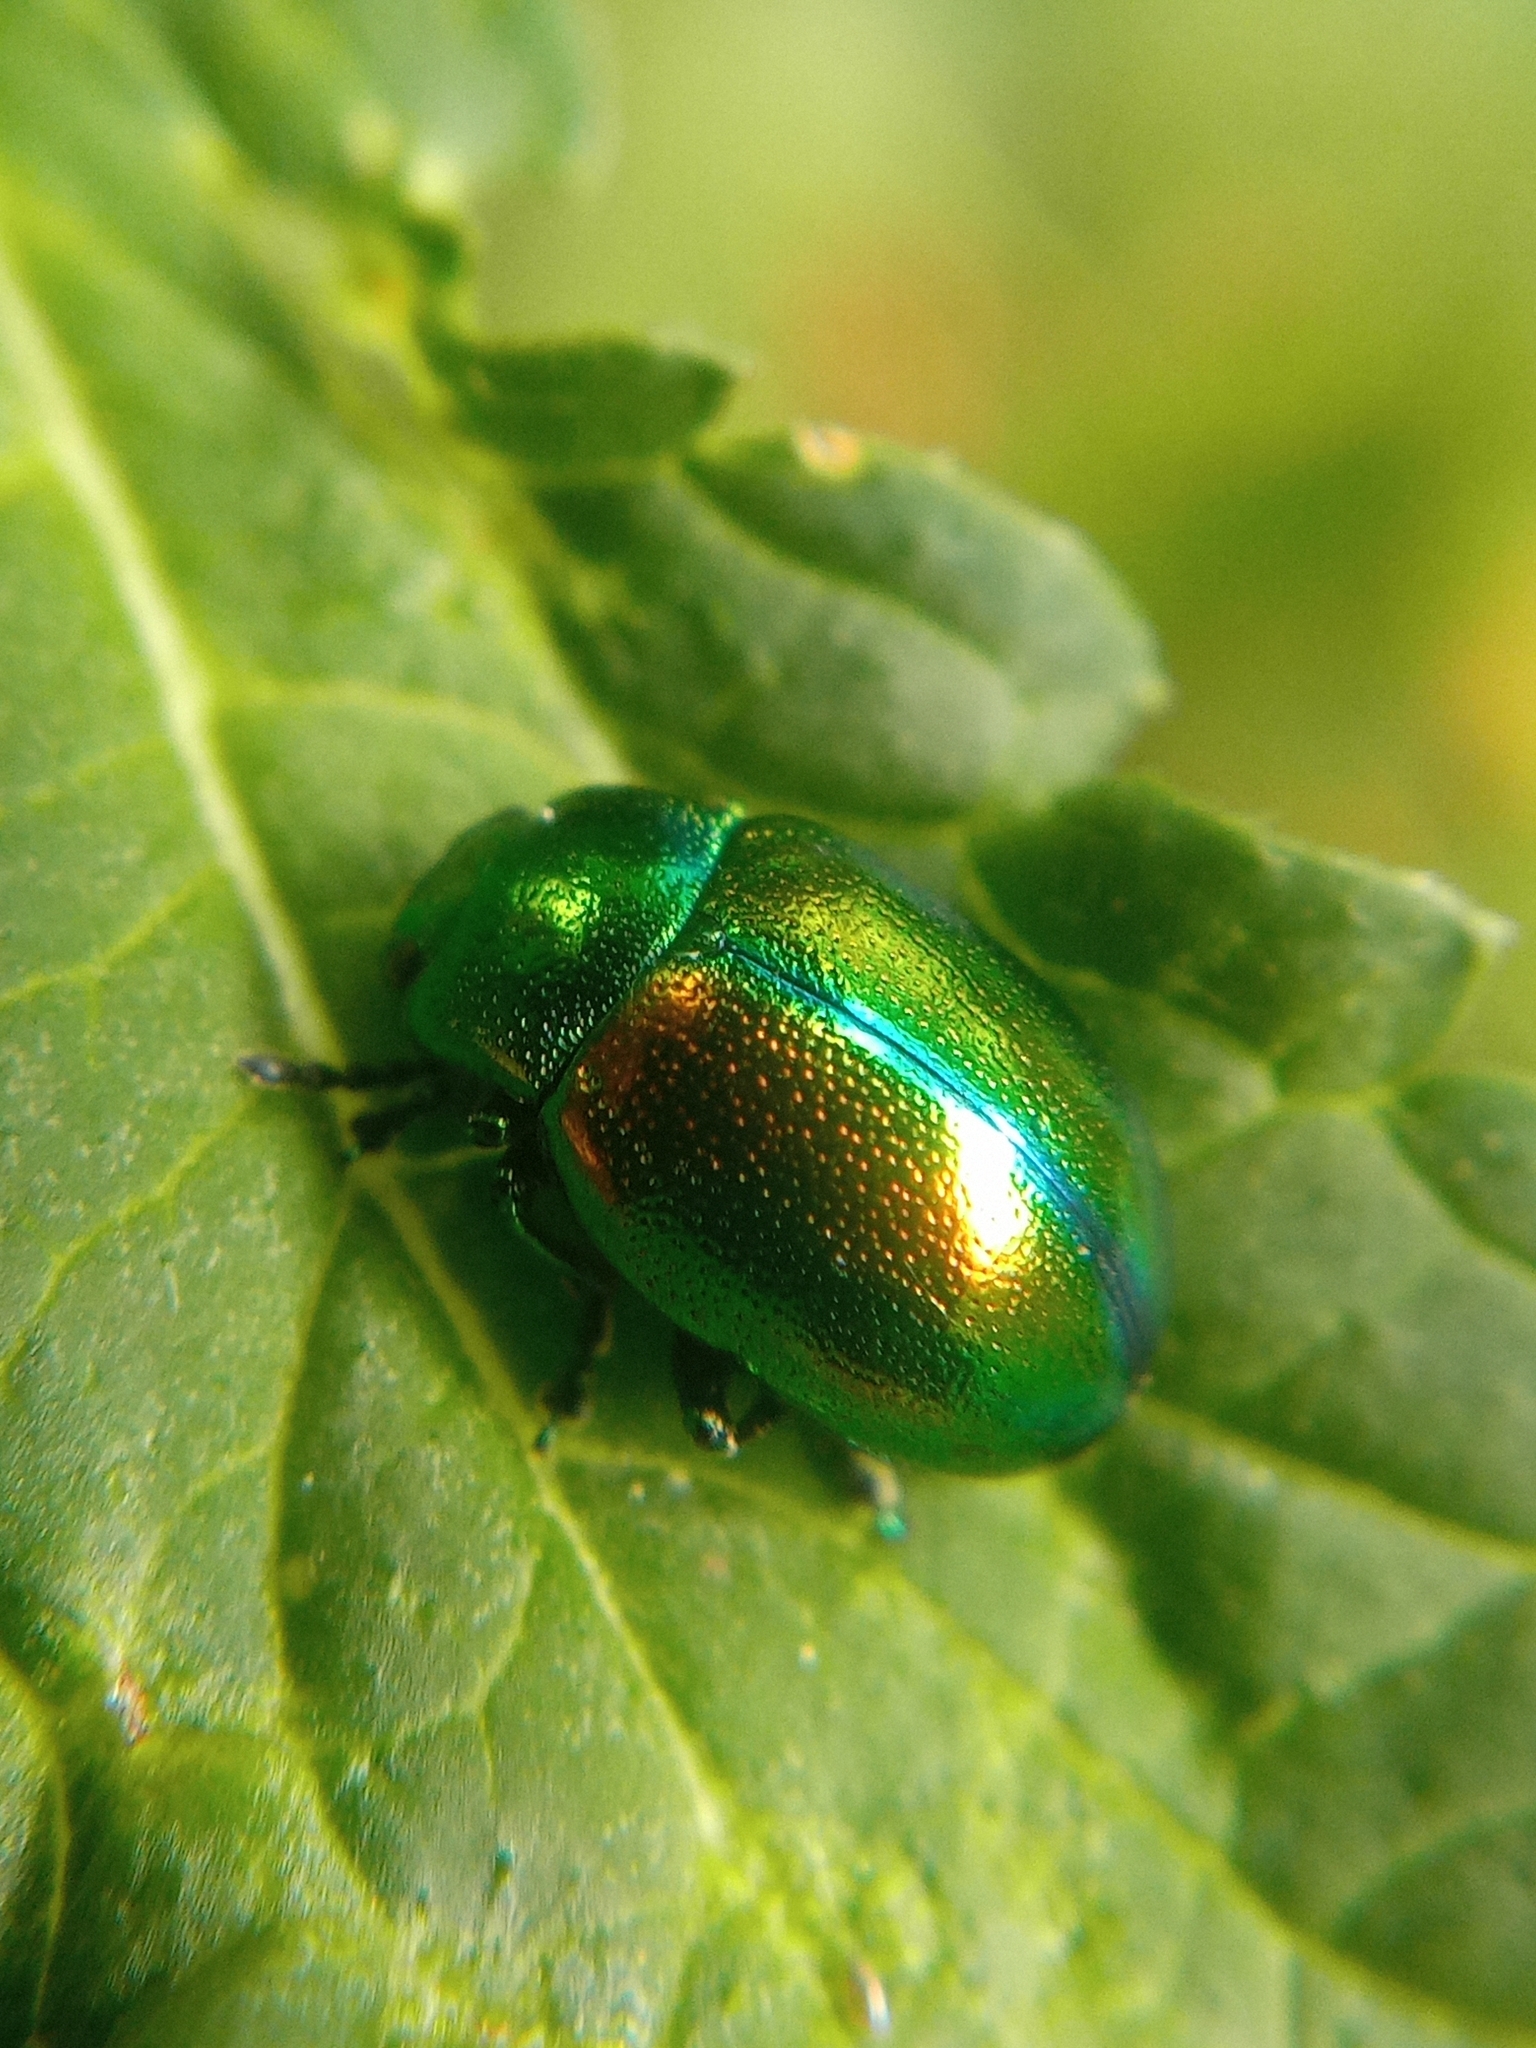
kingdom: Animalia
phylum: Arthropoda
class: Insecta
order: Coleoptera
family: Chrysomelidae
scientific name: Chrysomelidae
